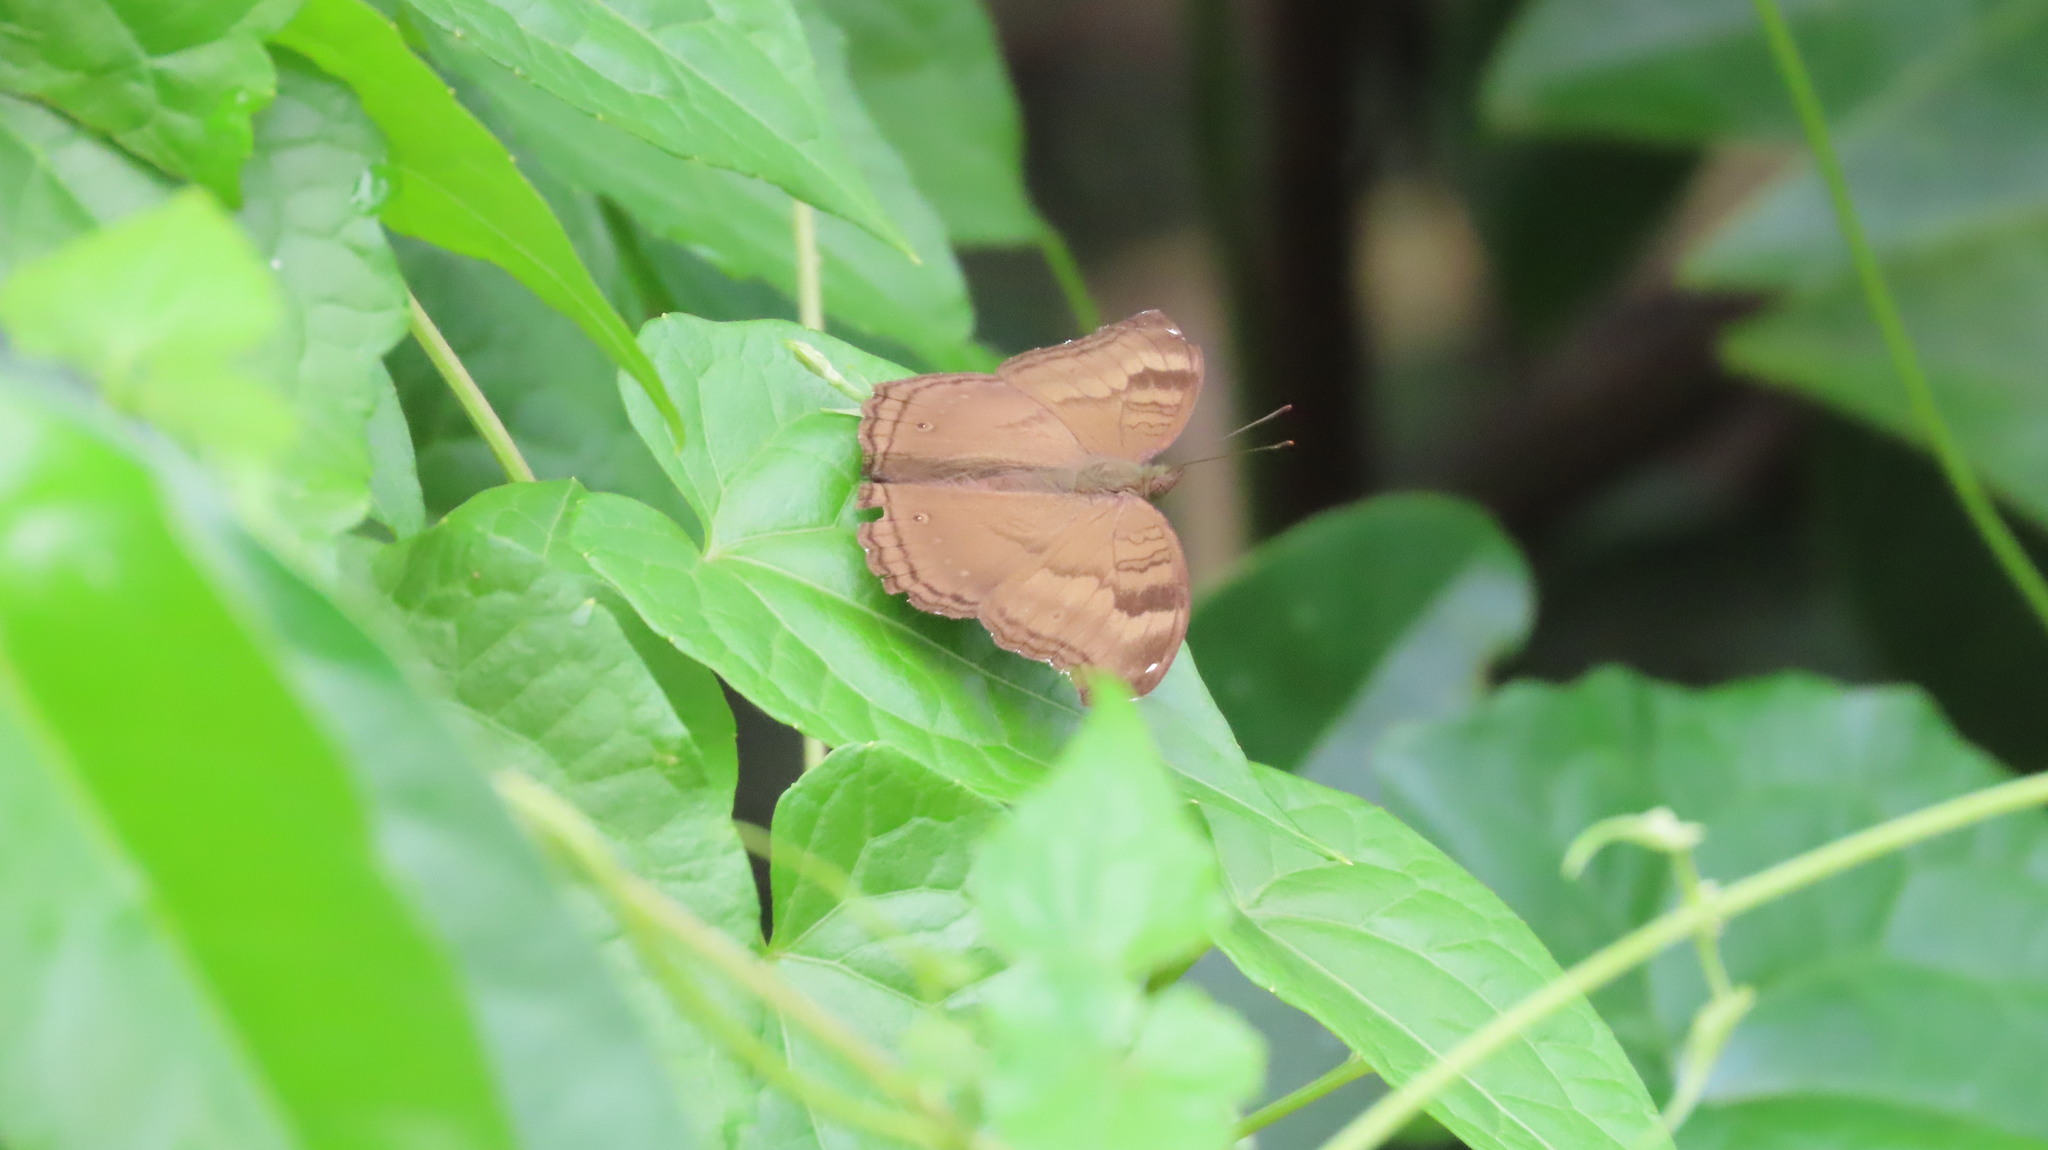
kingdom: Animalia
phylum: Arthropoda
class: Insecta
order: Lepidoptera
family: Nymphalidae
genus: Junonia
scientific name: Junonia iphita
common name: Chocolate pansy
